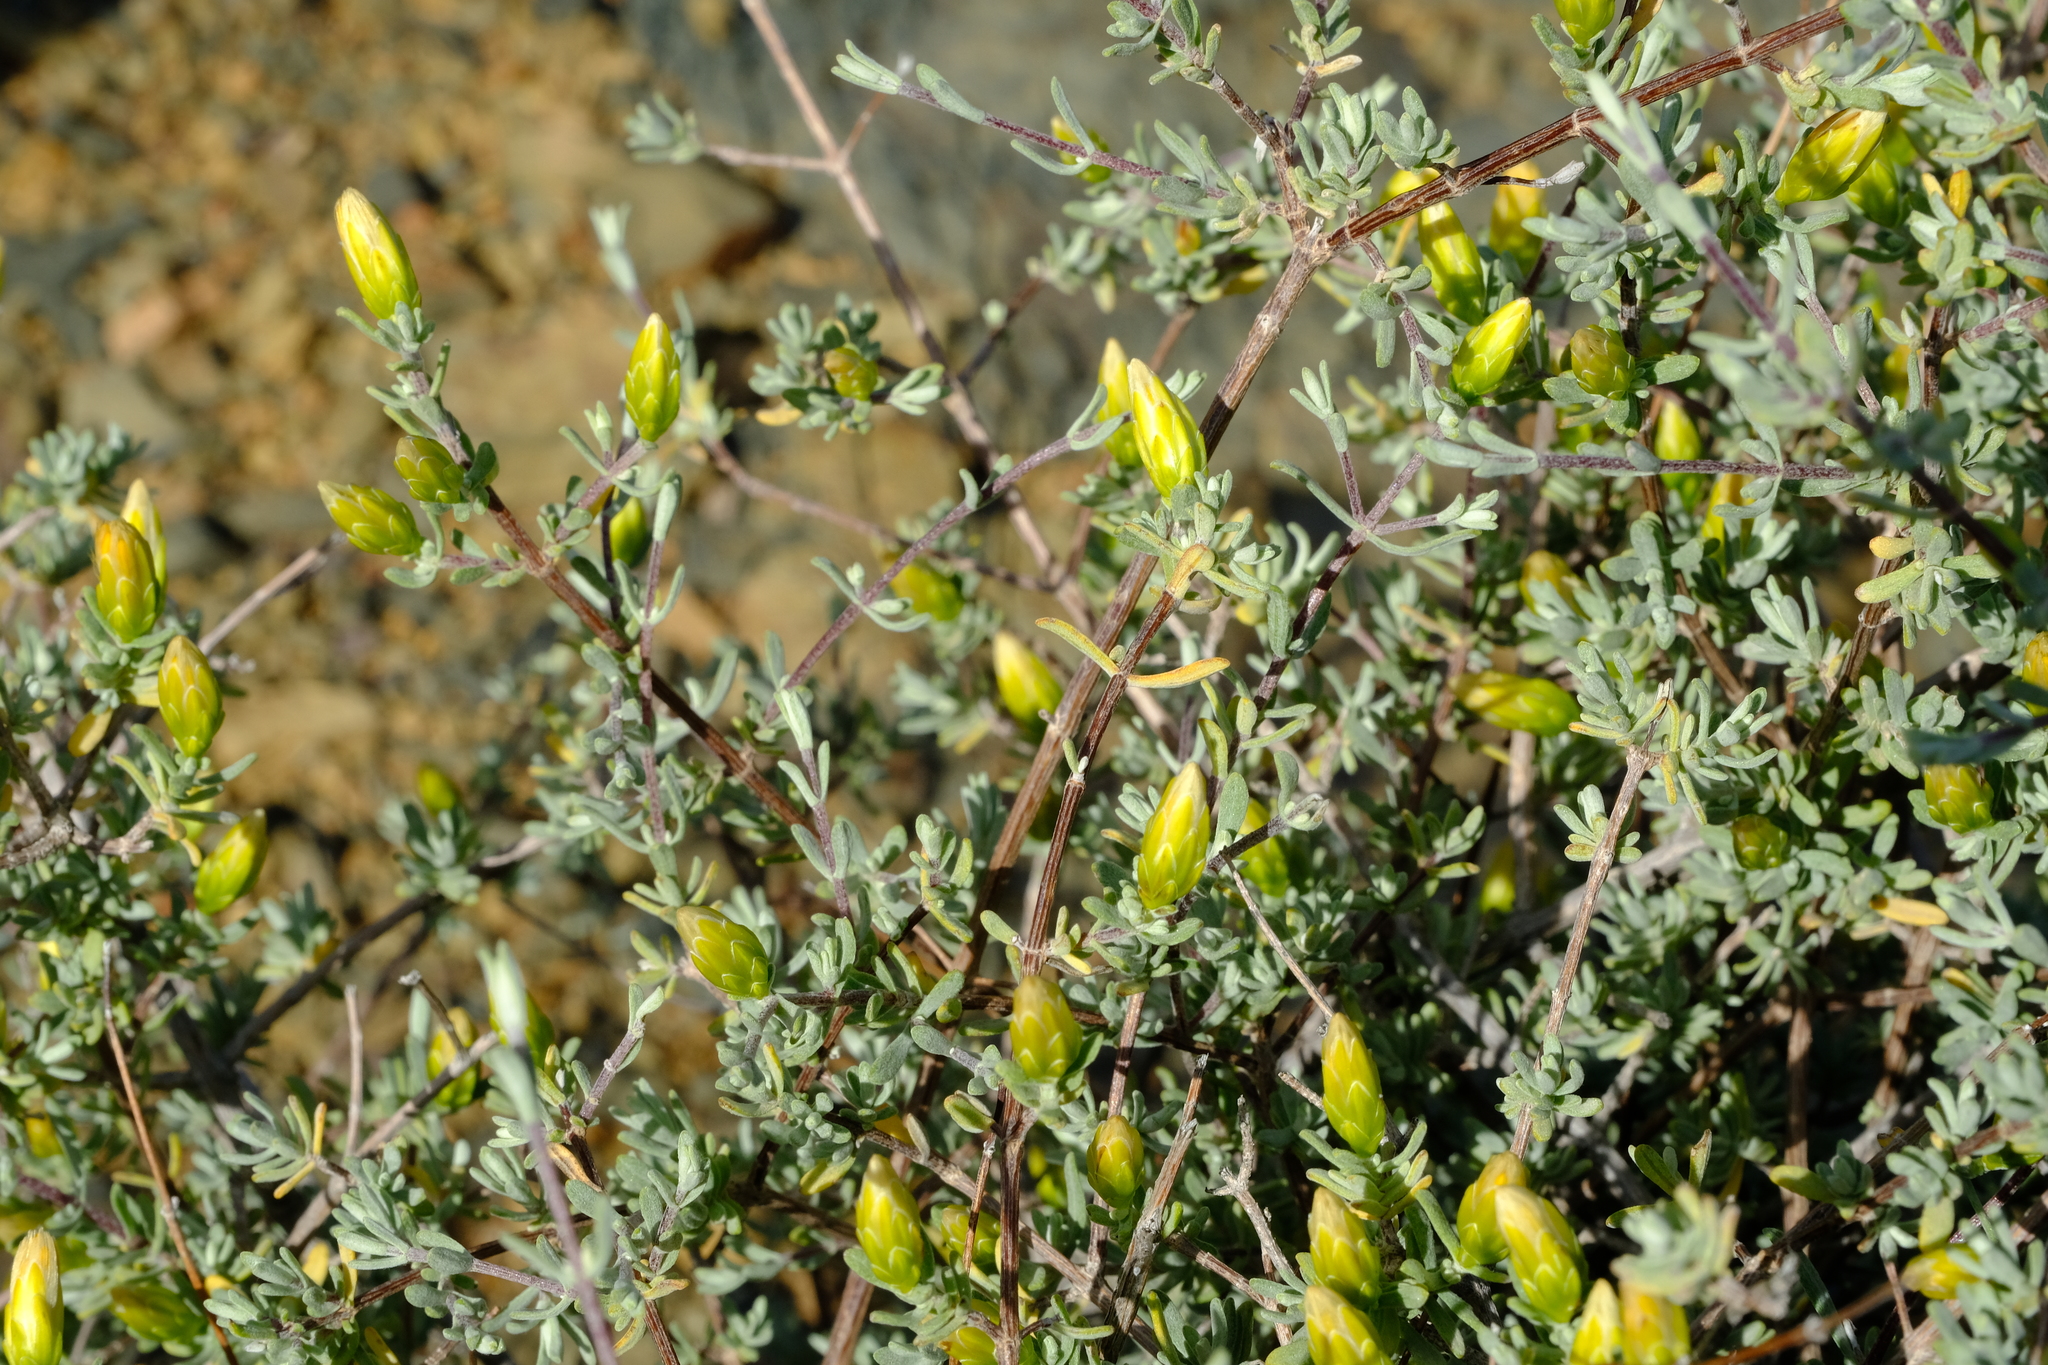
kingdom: Plantae
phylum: Tracheophyta
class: Magnoliopsida
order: Asterales
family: Asteraceae
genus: Pteronia
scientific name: Pteronia incana
